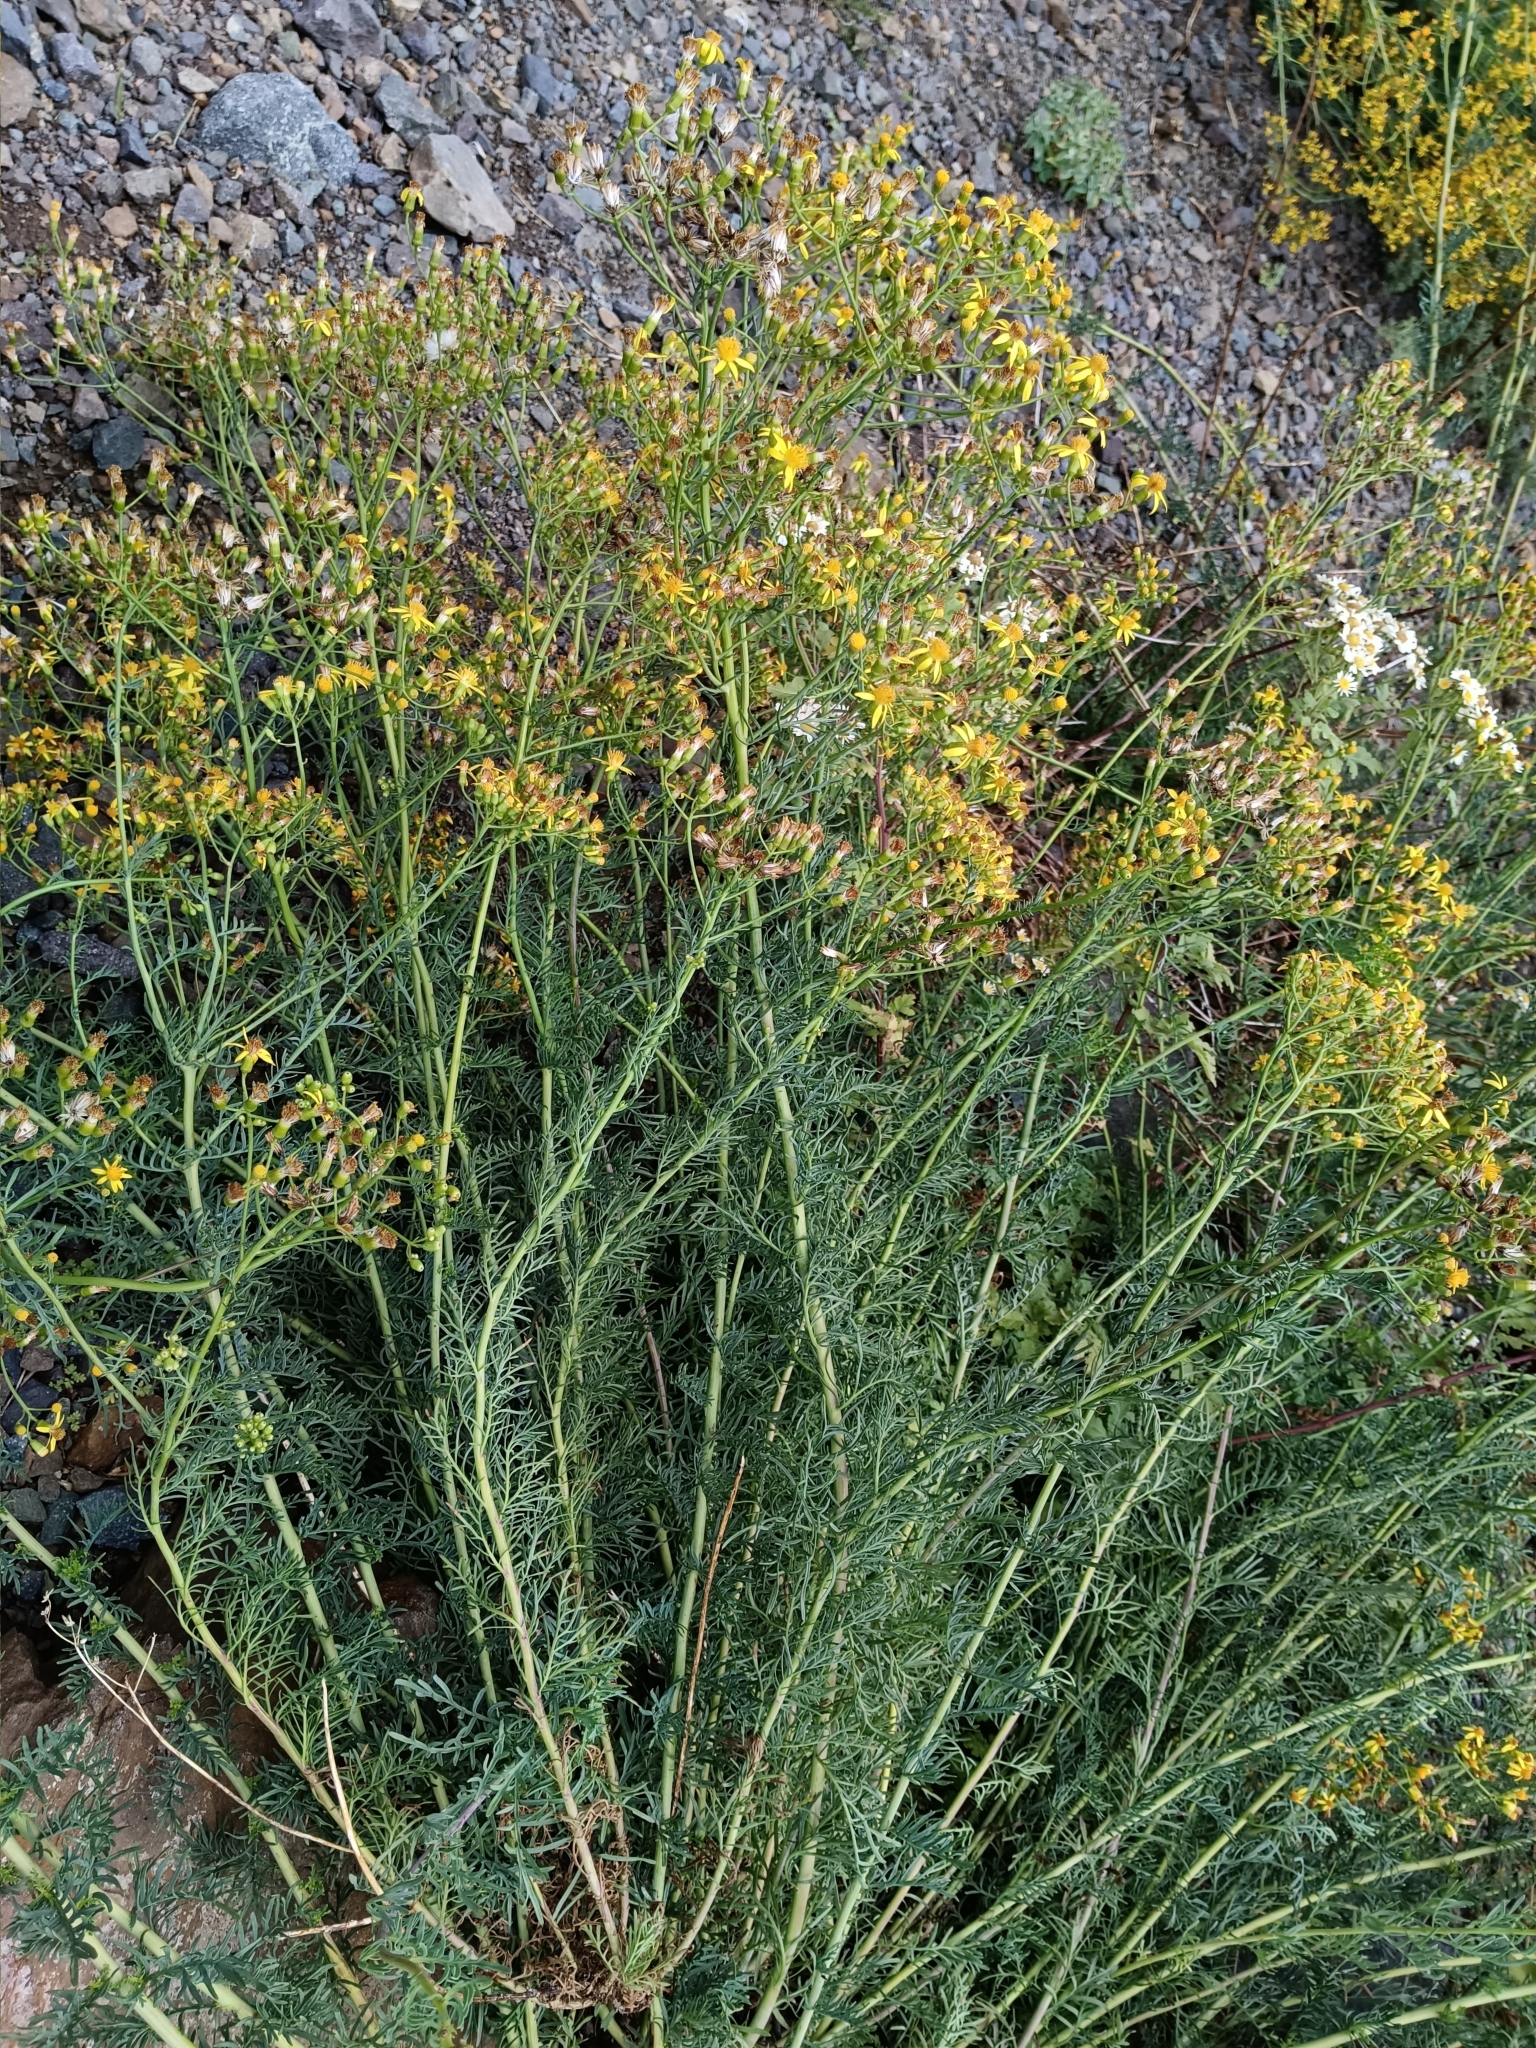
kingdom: Plantae
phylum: Tracheophyta
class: Magnoliopsida
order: Asterales
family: Asteraceae
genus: Senecio
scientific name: Senecio eruciformis
